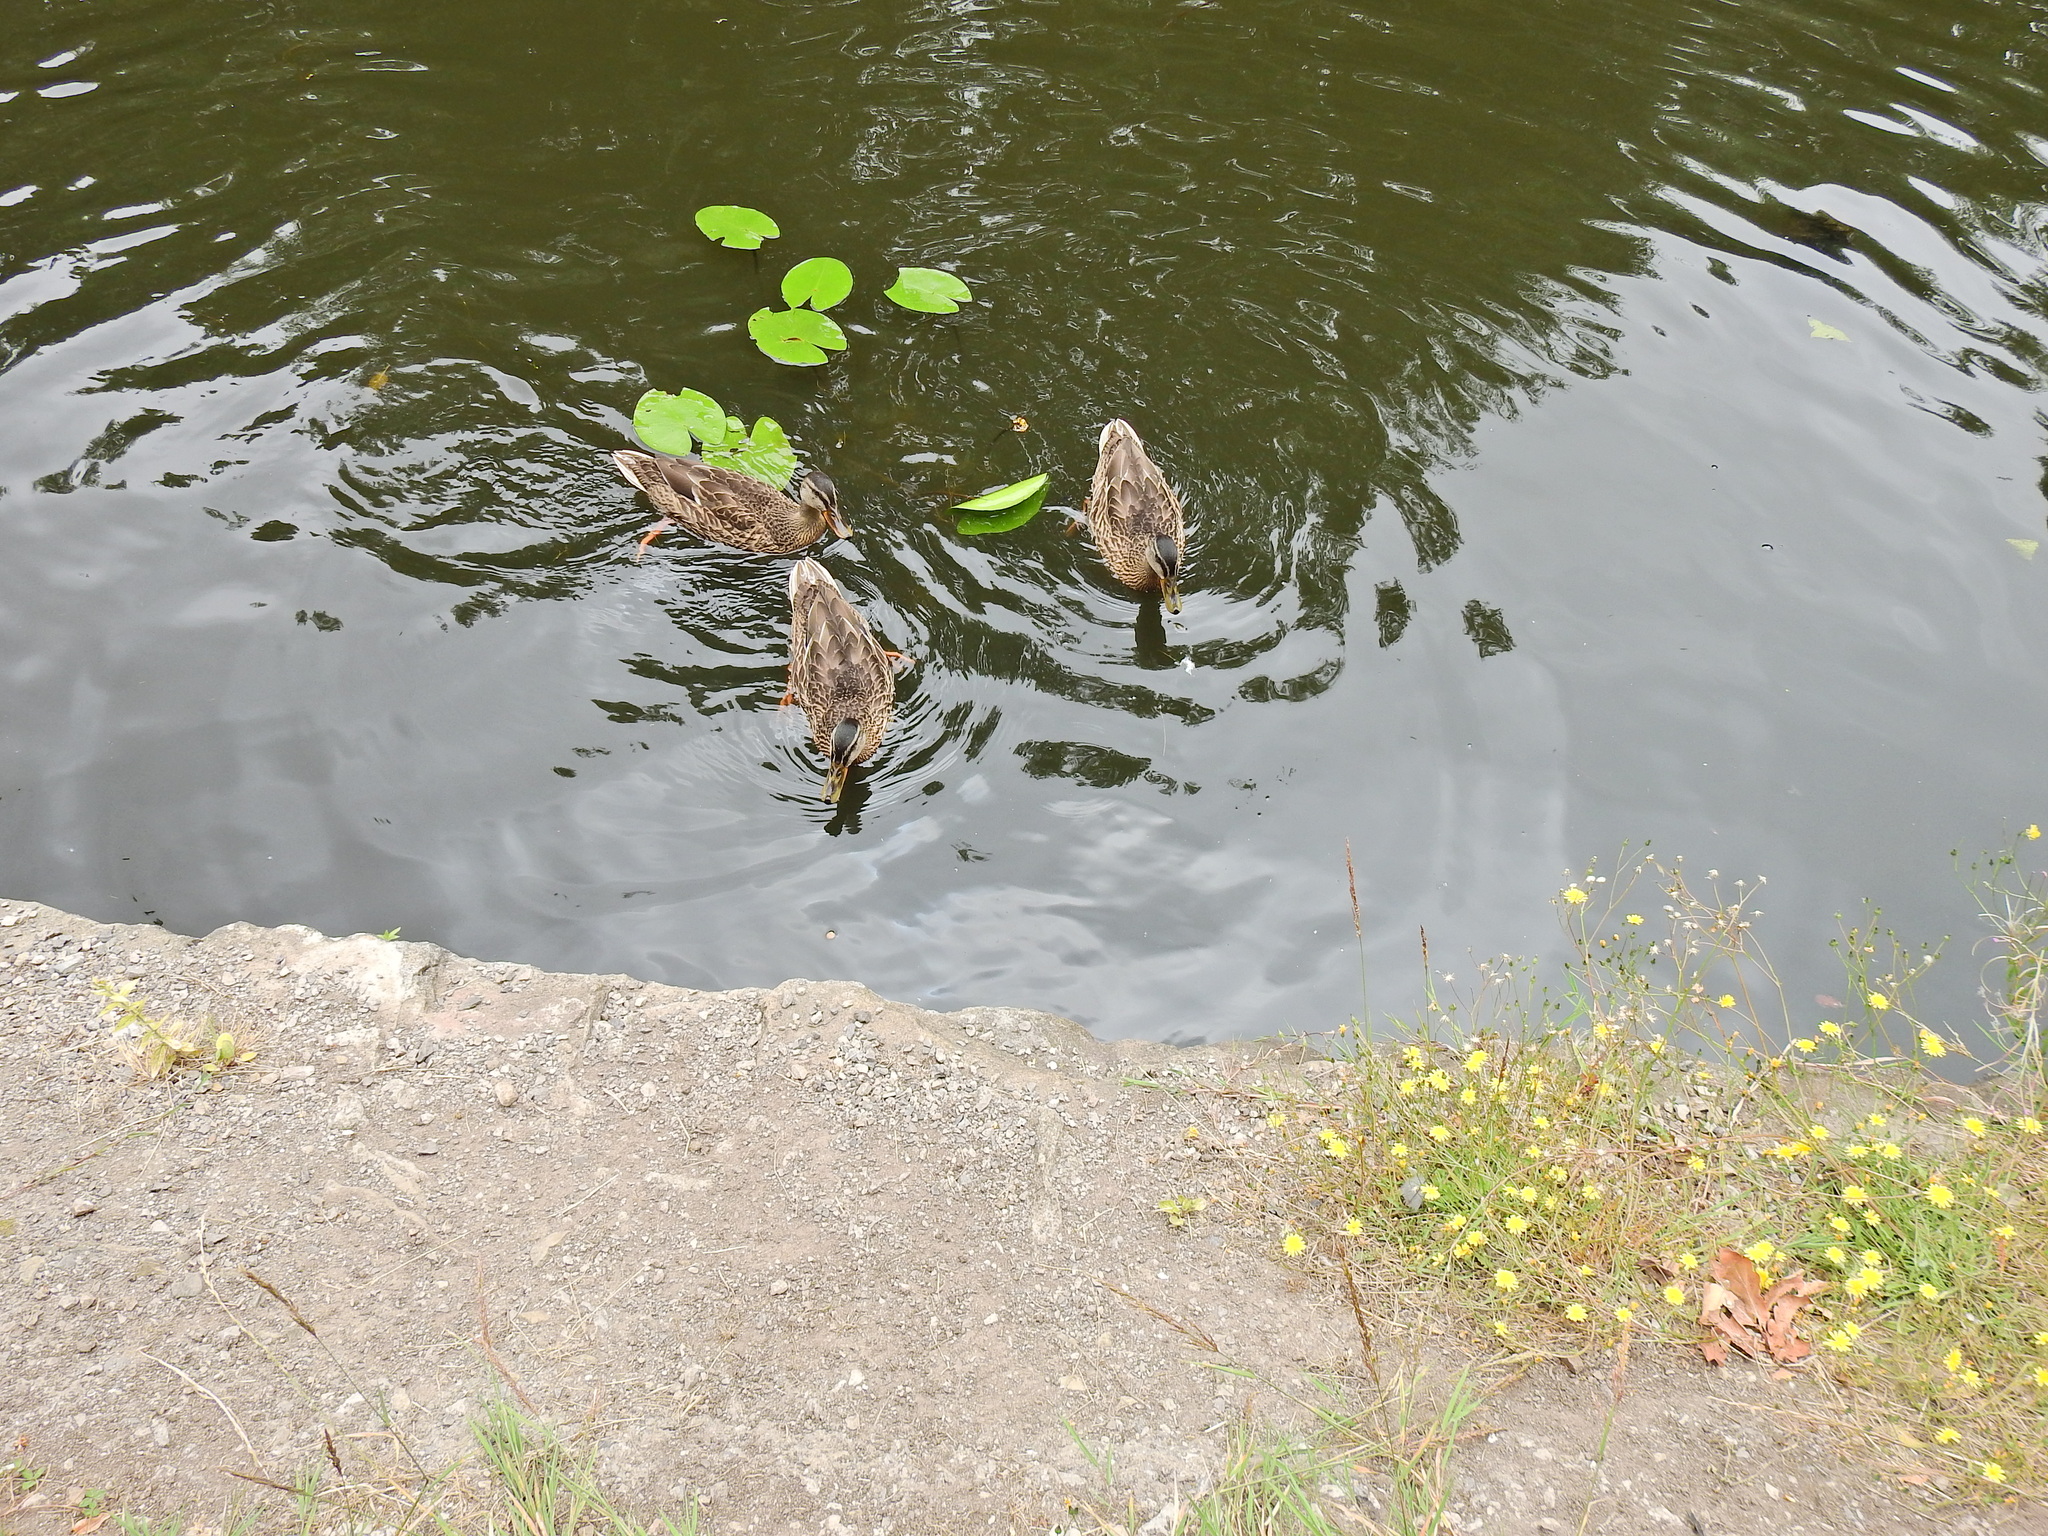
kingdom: Animalia
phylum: Chordata
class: Aves
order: Anseriformes
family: Anatidae
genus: Anas
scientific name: Anas platyrhynchos
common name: Mallard
